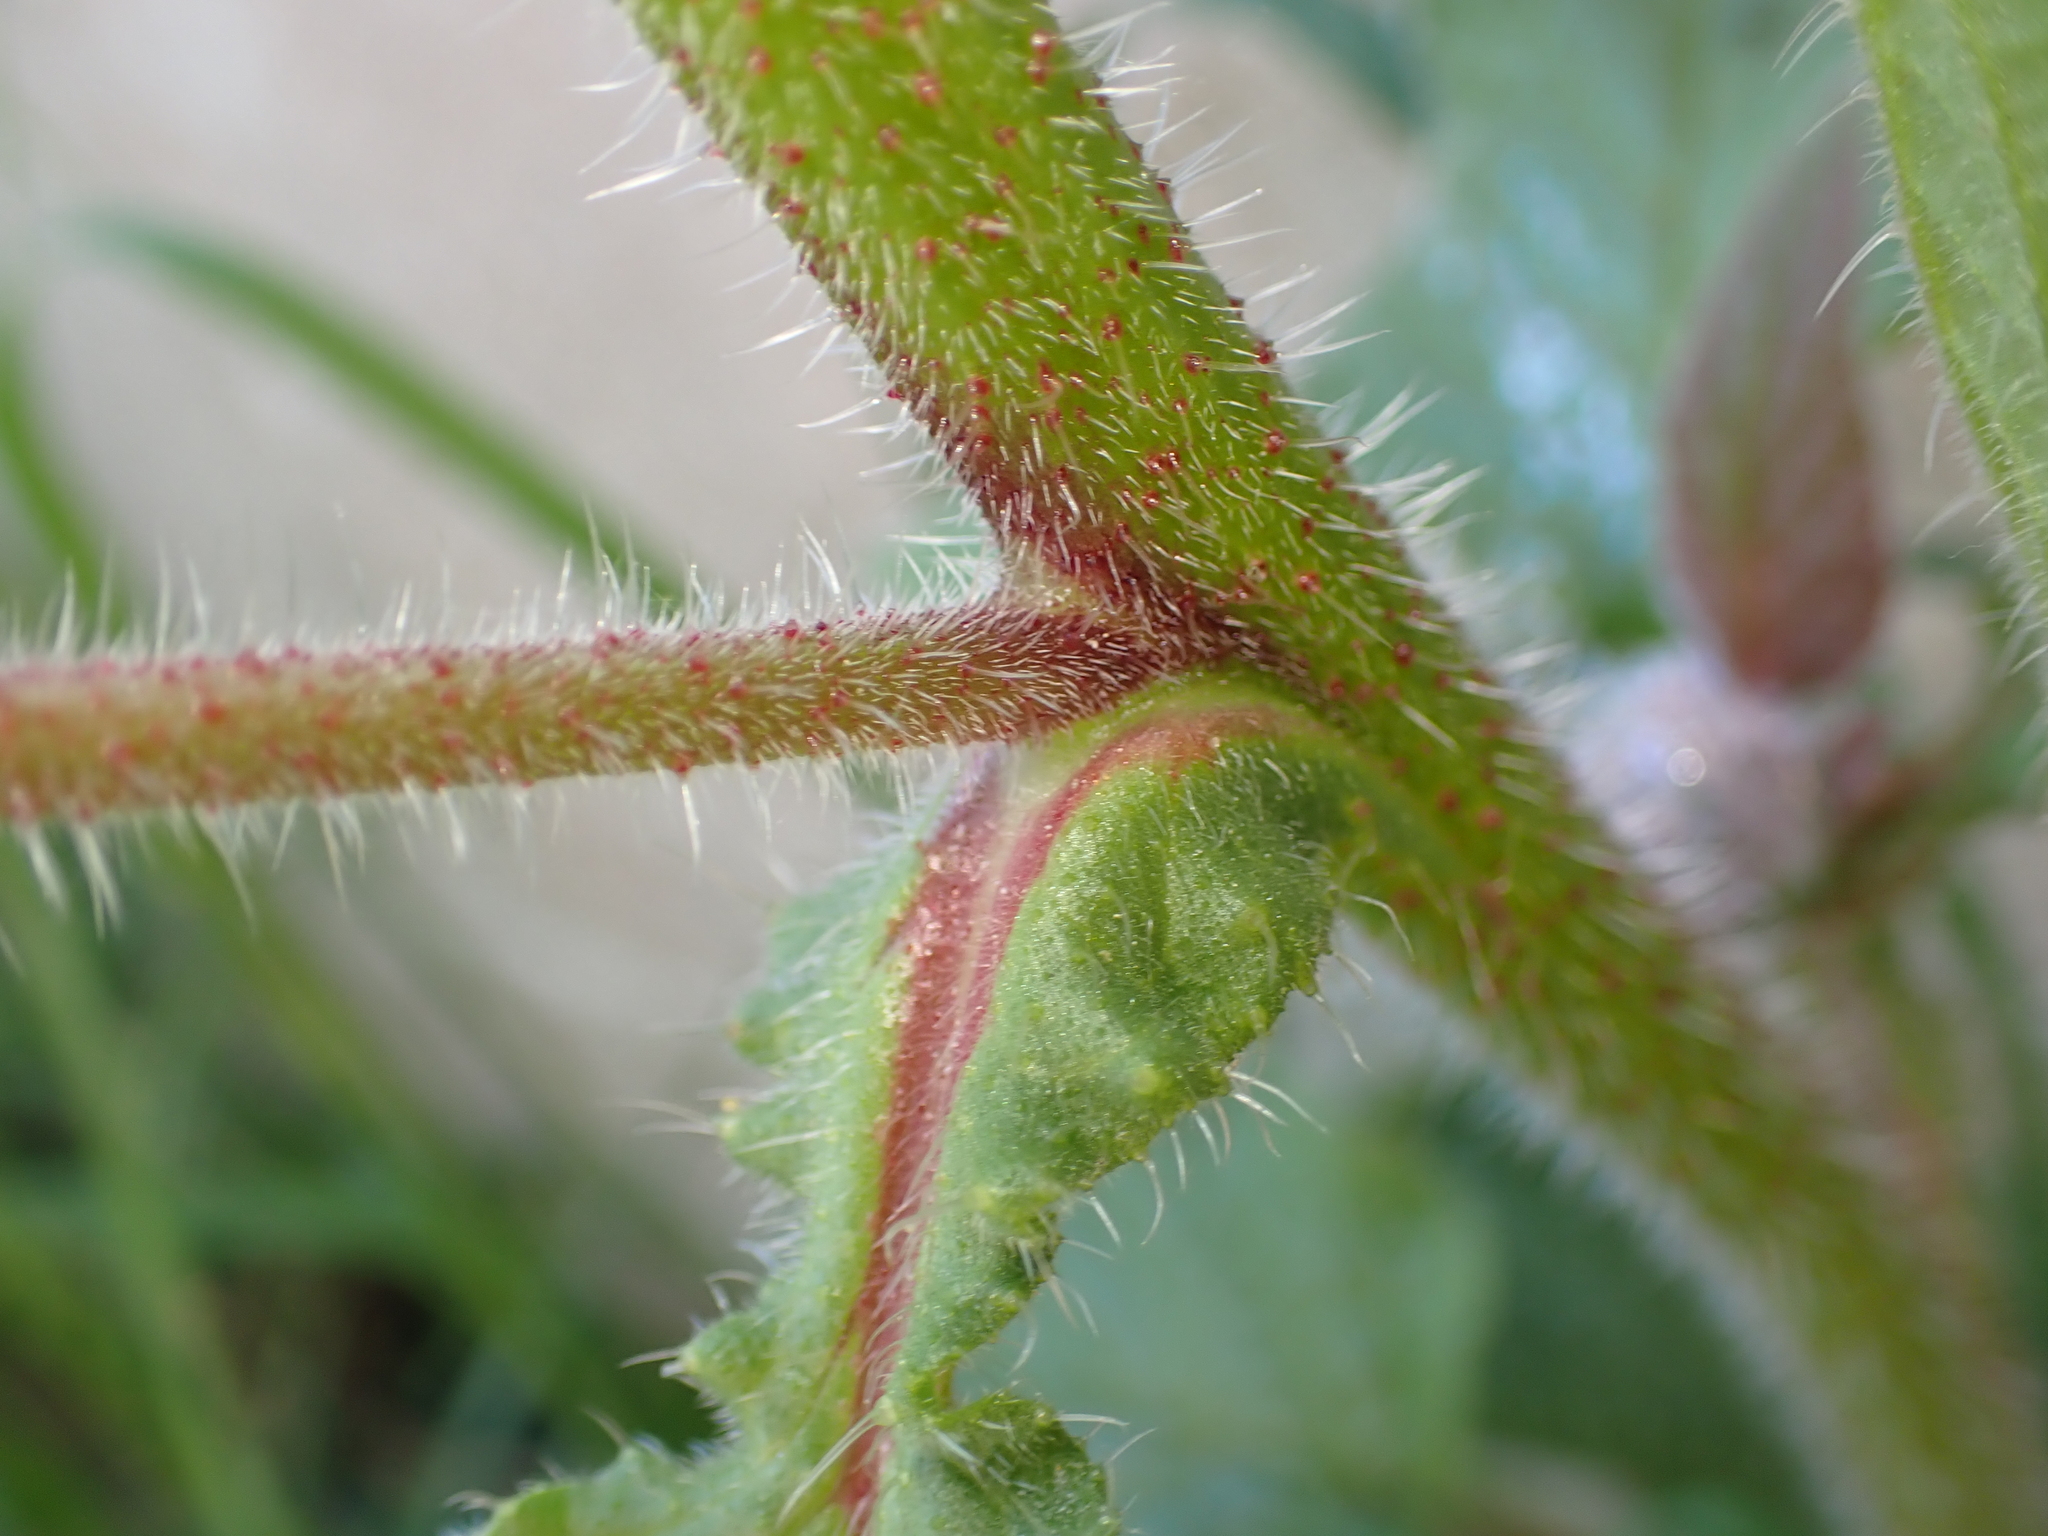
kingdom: Plantae
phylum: Tracheophyta
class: Magnoliopsida
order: Boraginales
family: Boraginaceae
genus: Borago
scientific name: Borago officinalis
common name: Borage
